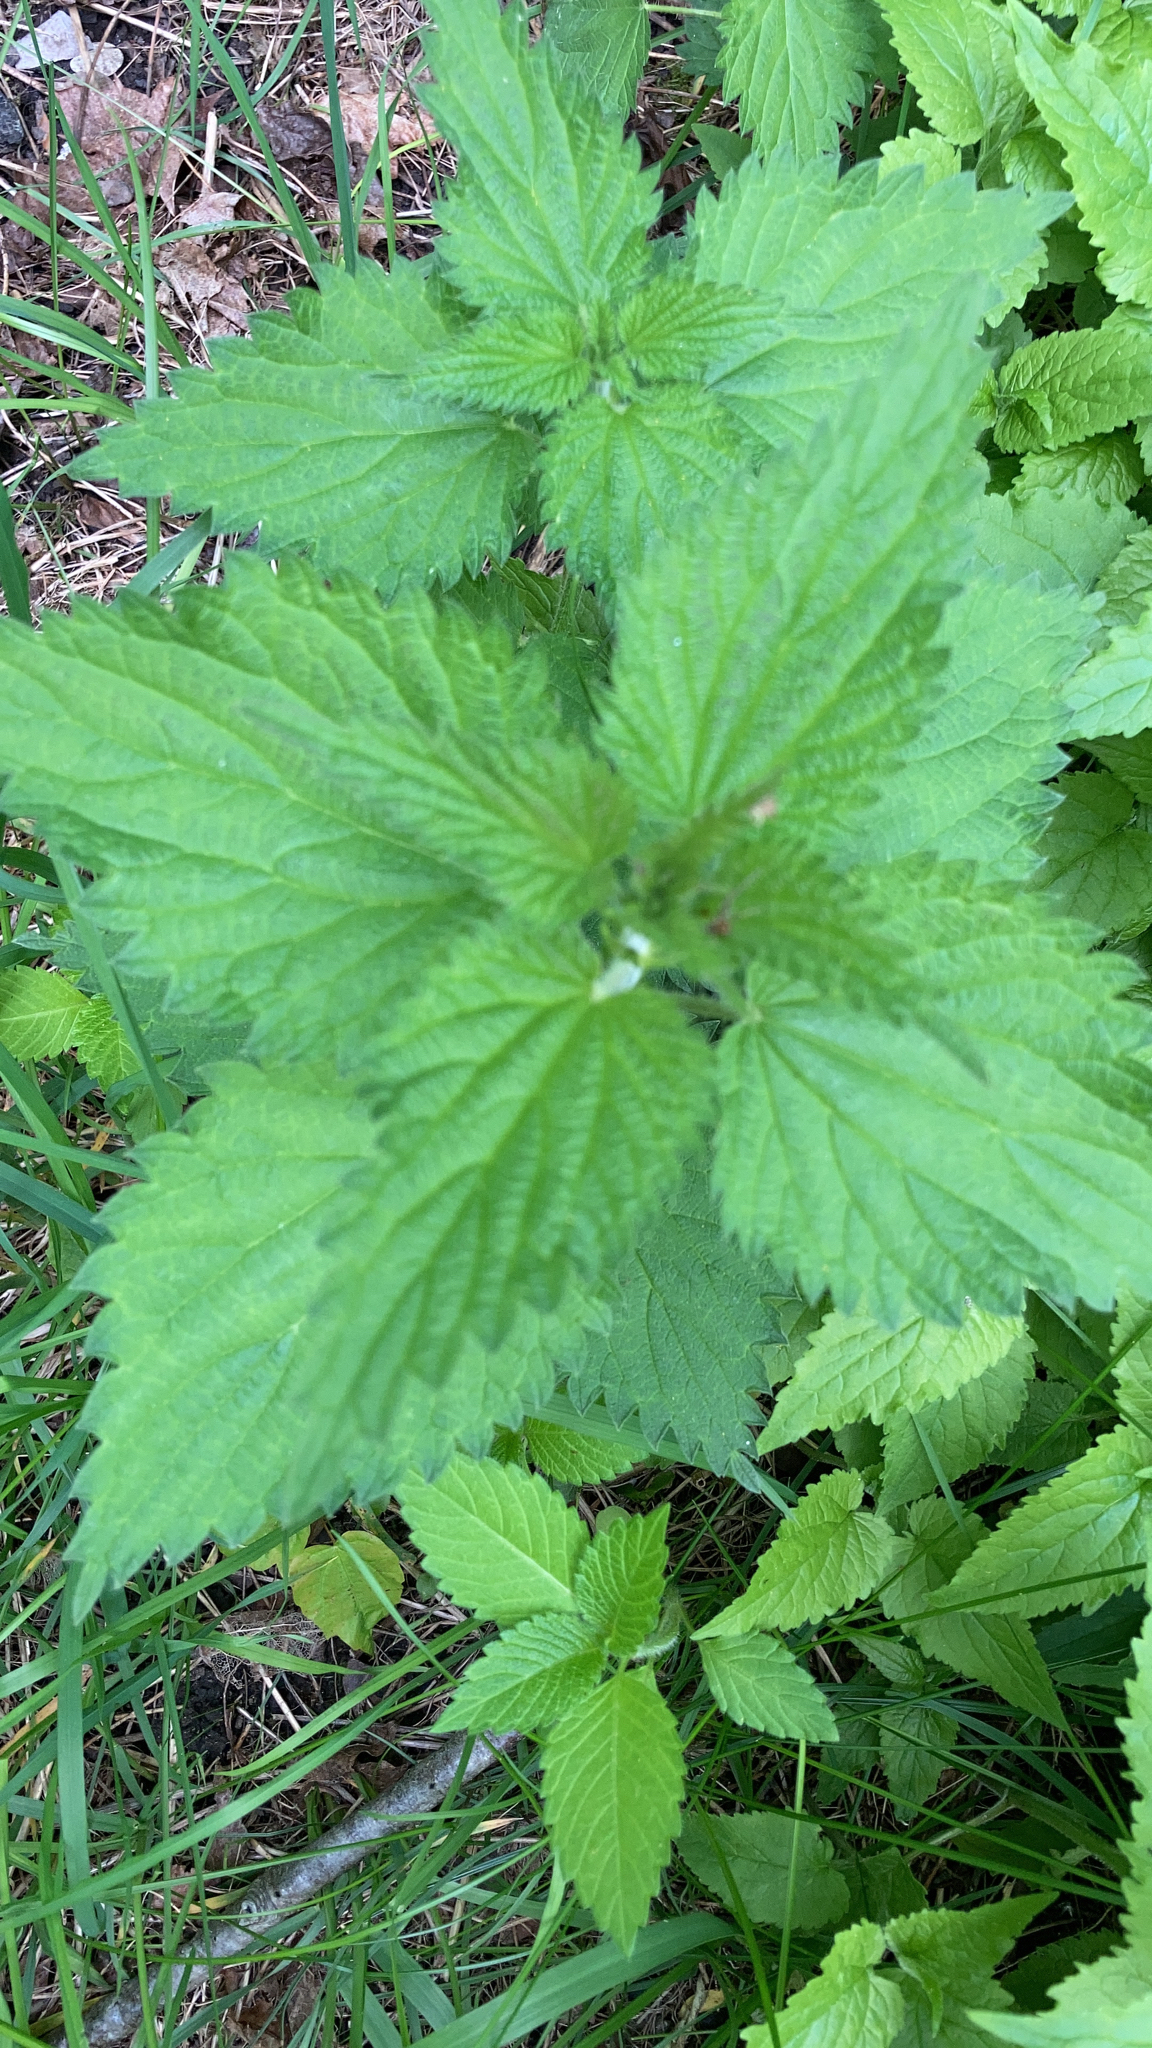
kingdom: Plantae
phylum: Tracheophyta
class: Magnoliopsida
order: Rosales
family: Urticaceae
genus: Urtica
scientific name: Urtica dioica
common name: Common nettle
